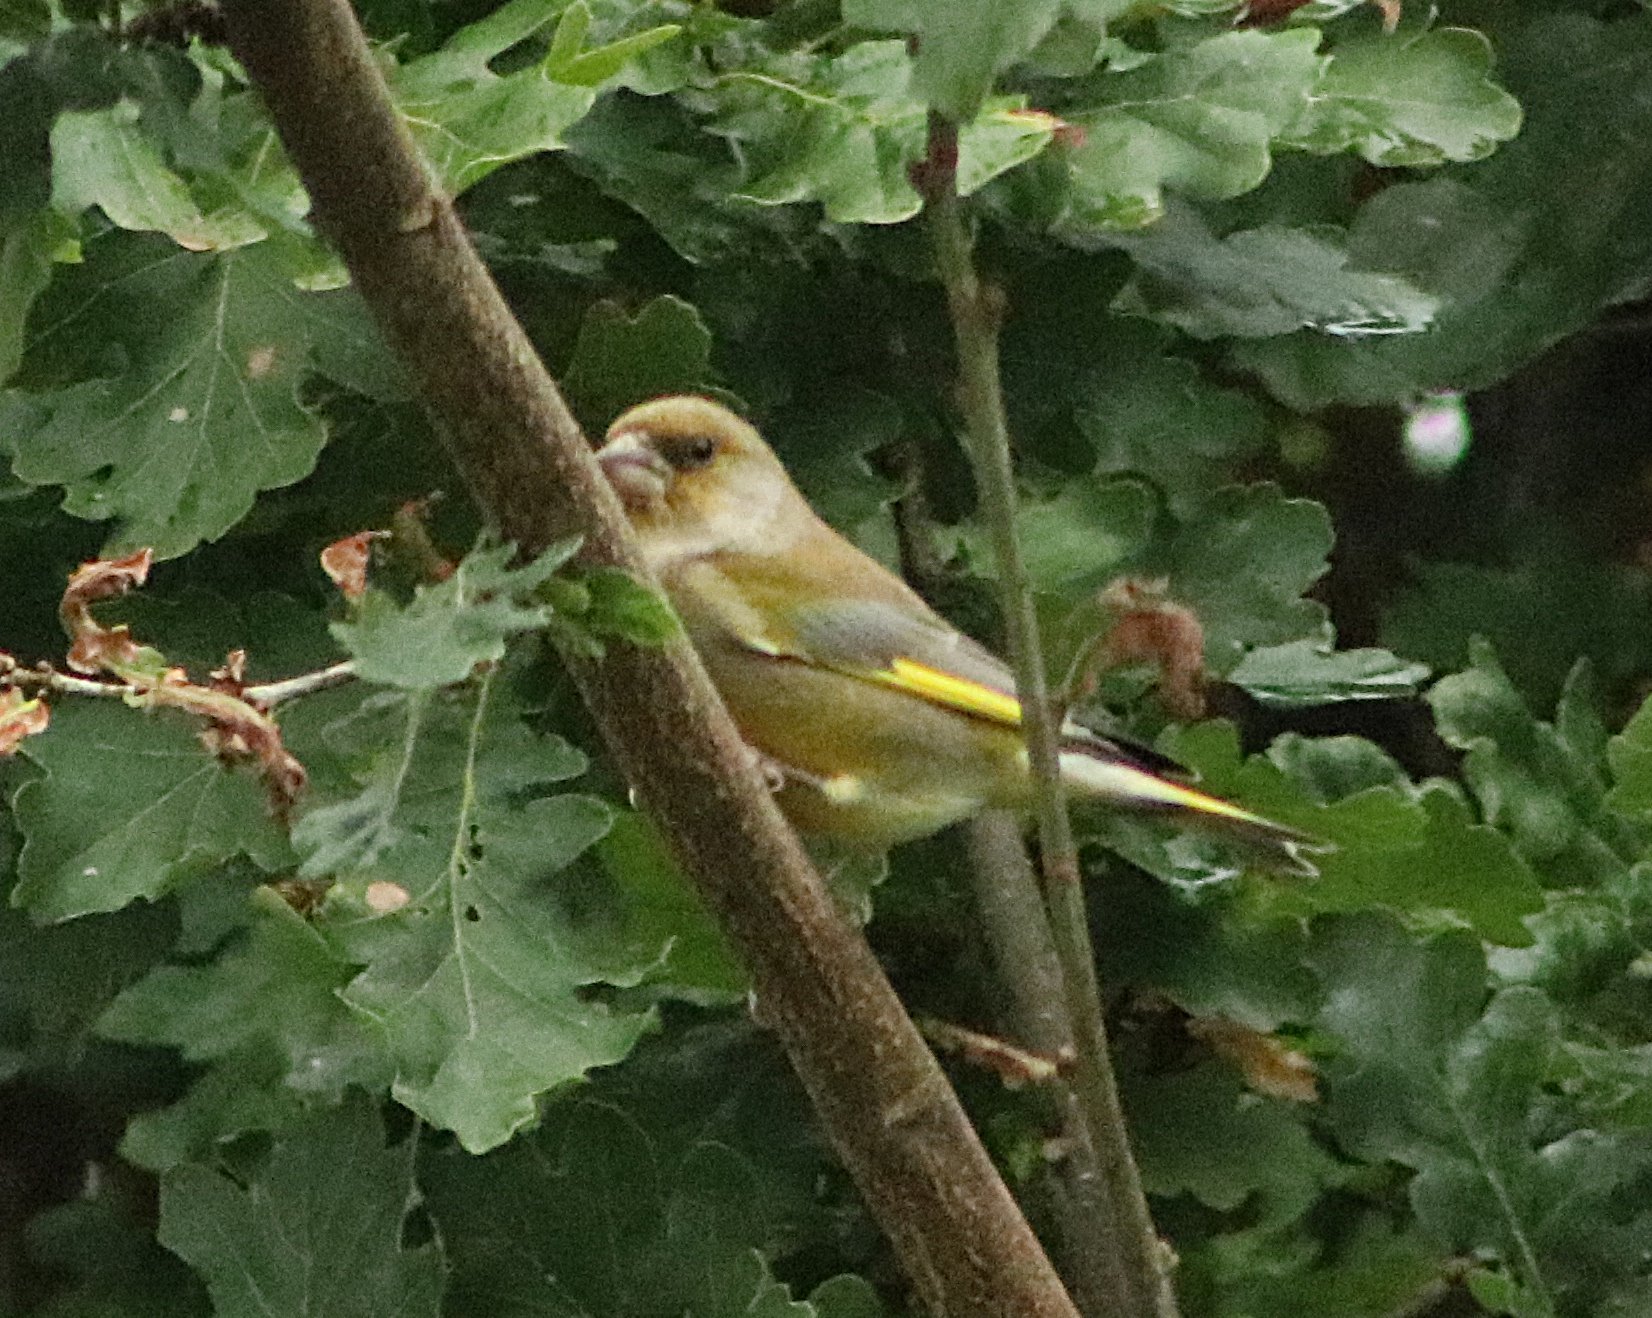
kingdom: Plantae
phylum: Tracheophyta
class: Liliopsida
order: Poales
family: Poaceae
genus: Chloris
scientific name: Chloris chloris
